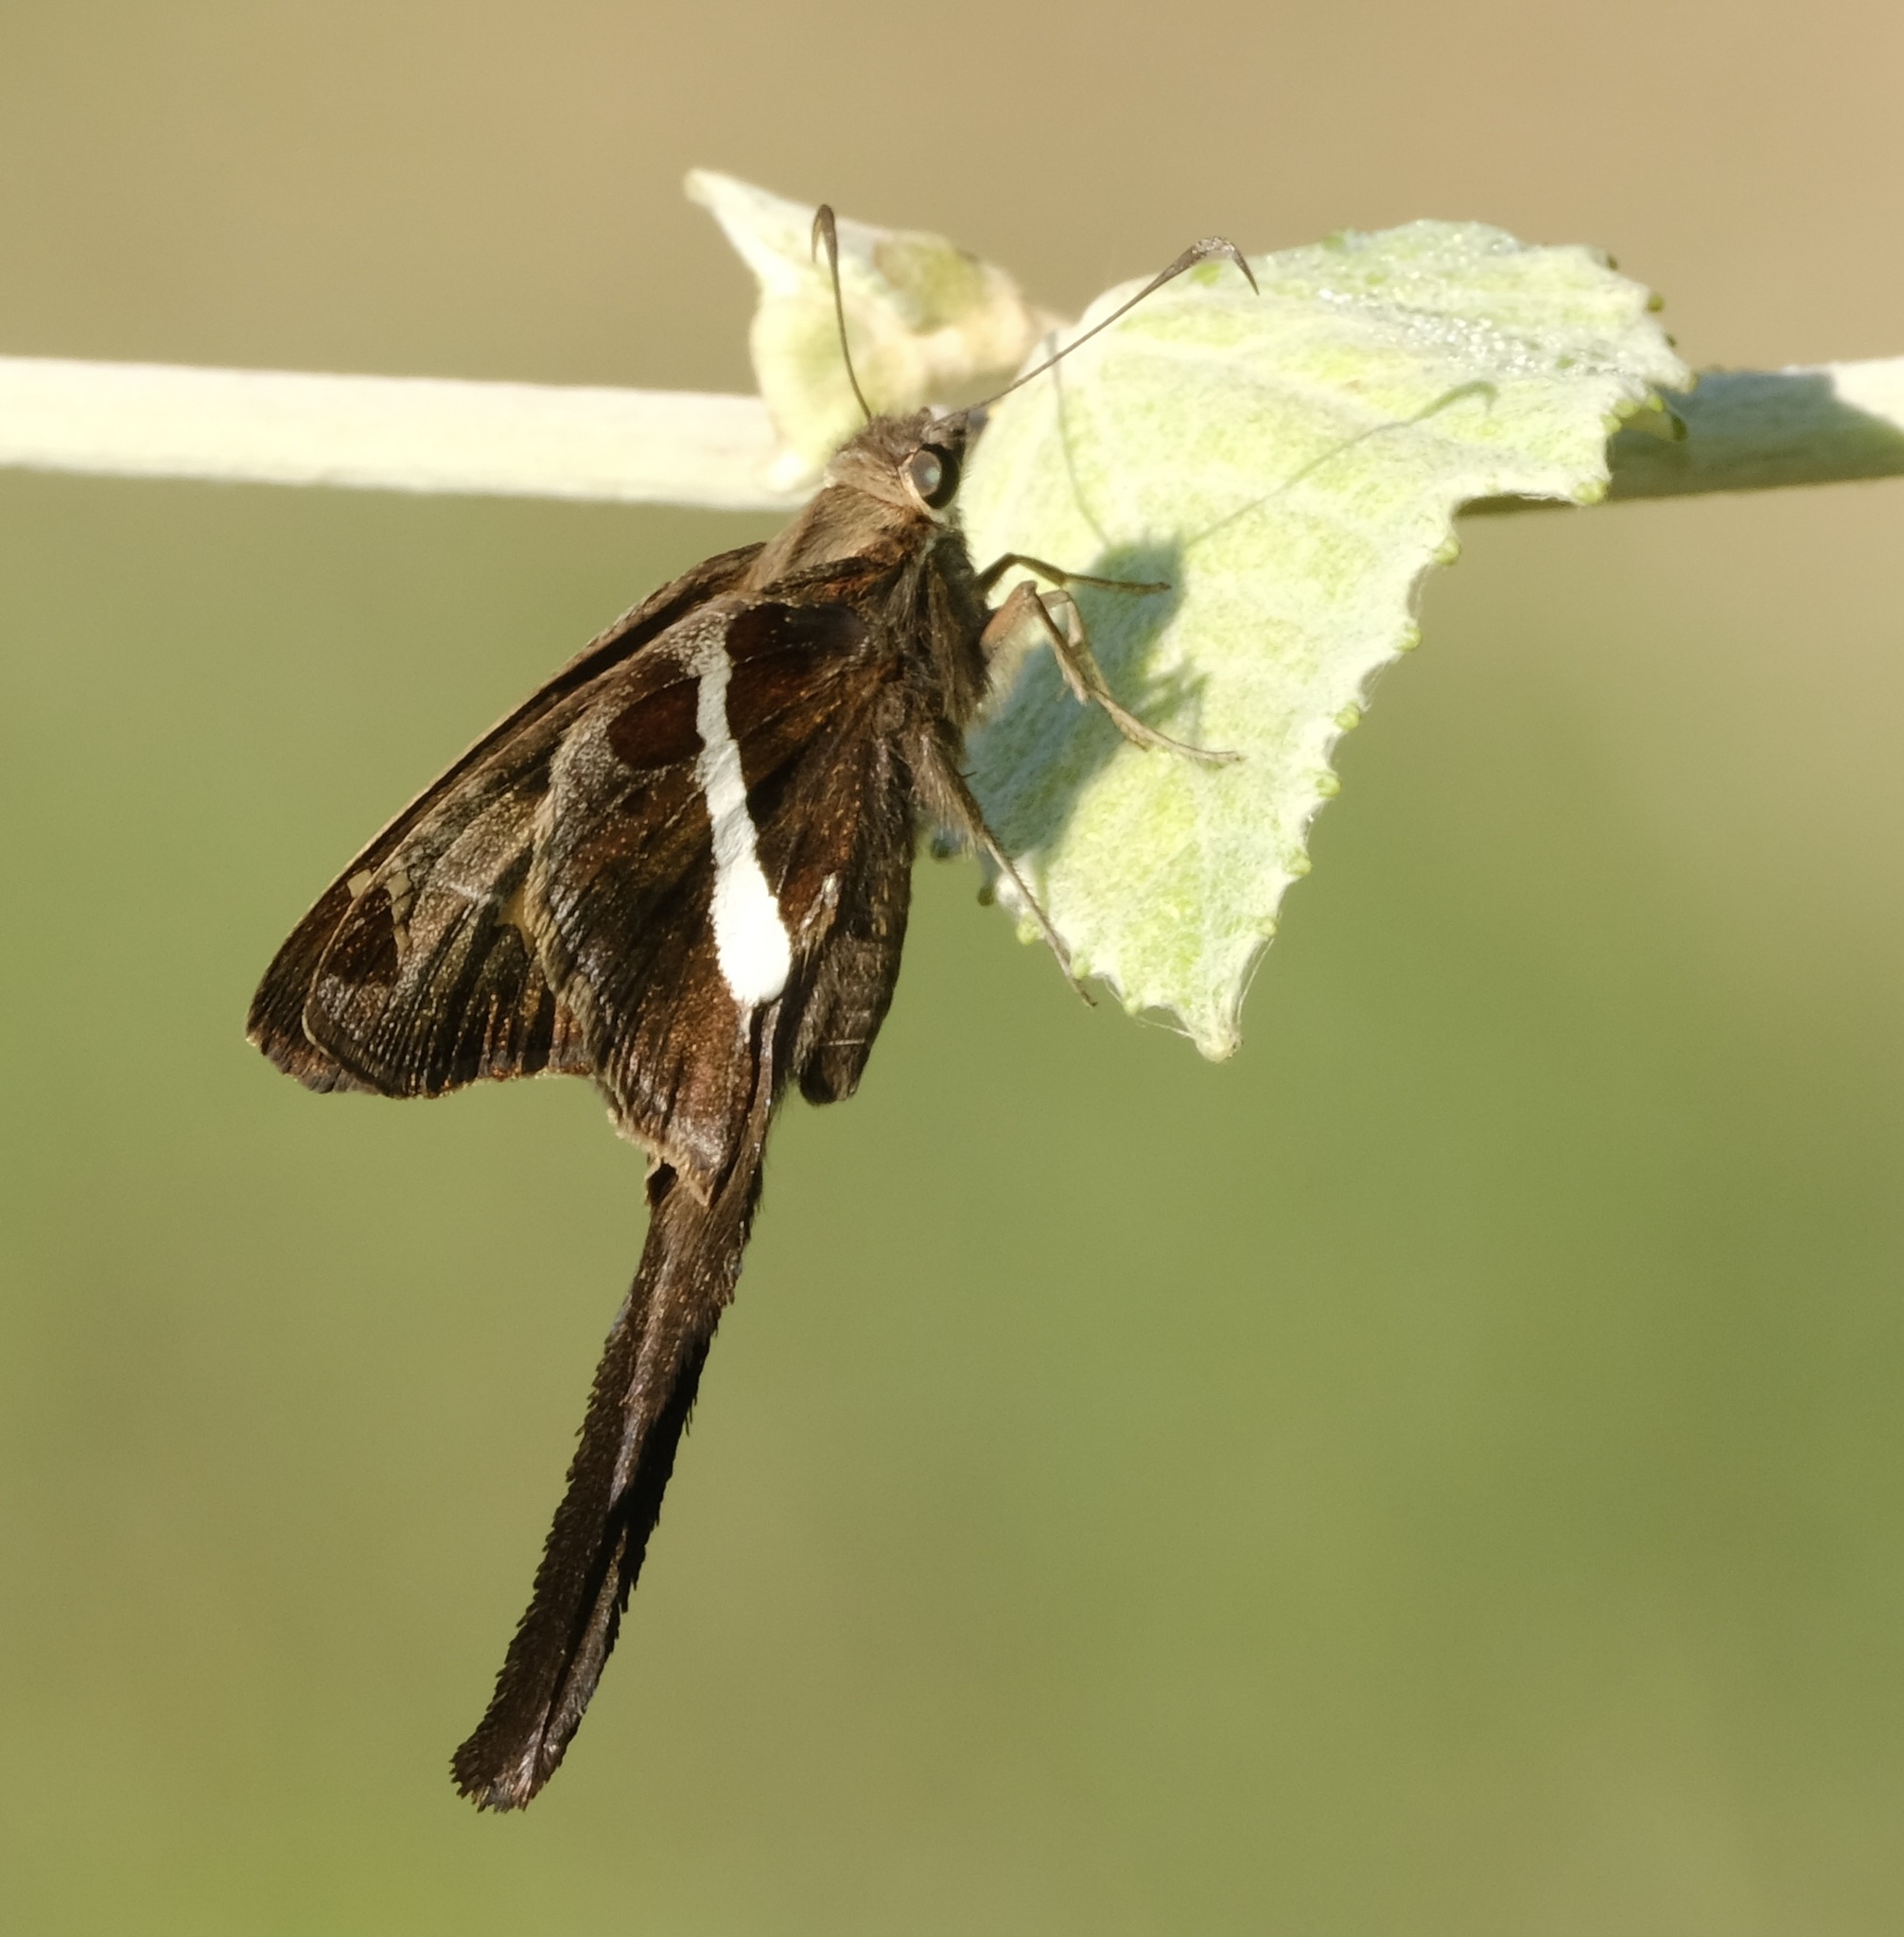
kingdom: Animalia
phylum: Arthropoda
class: Insecta
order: Lepidoptera
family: Hesperiidae
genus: Chioides
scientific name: Chioides catillus
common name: Silverbanded skipper
